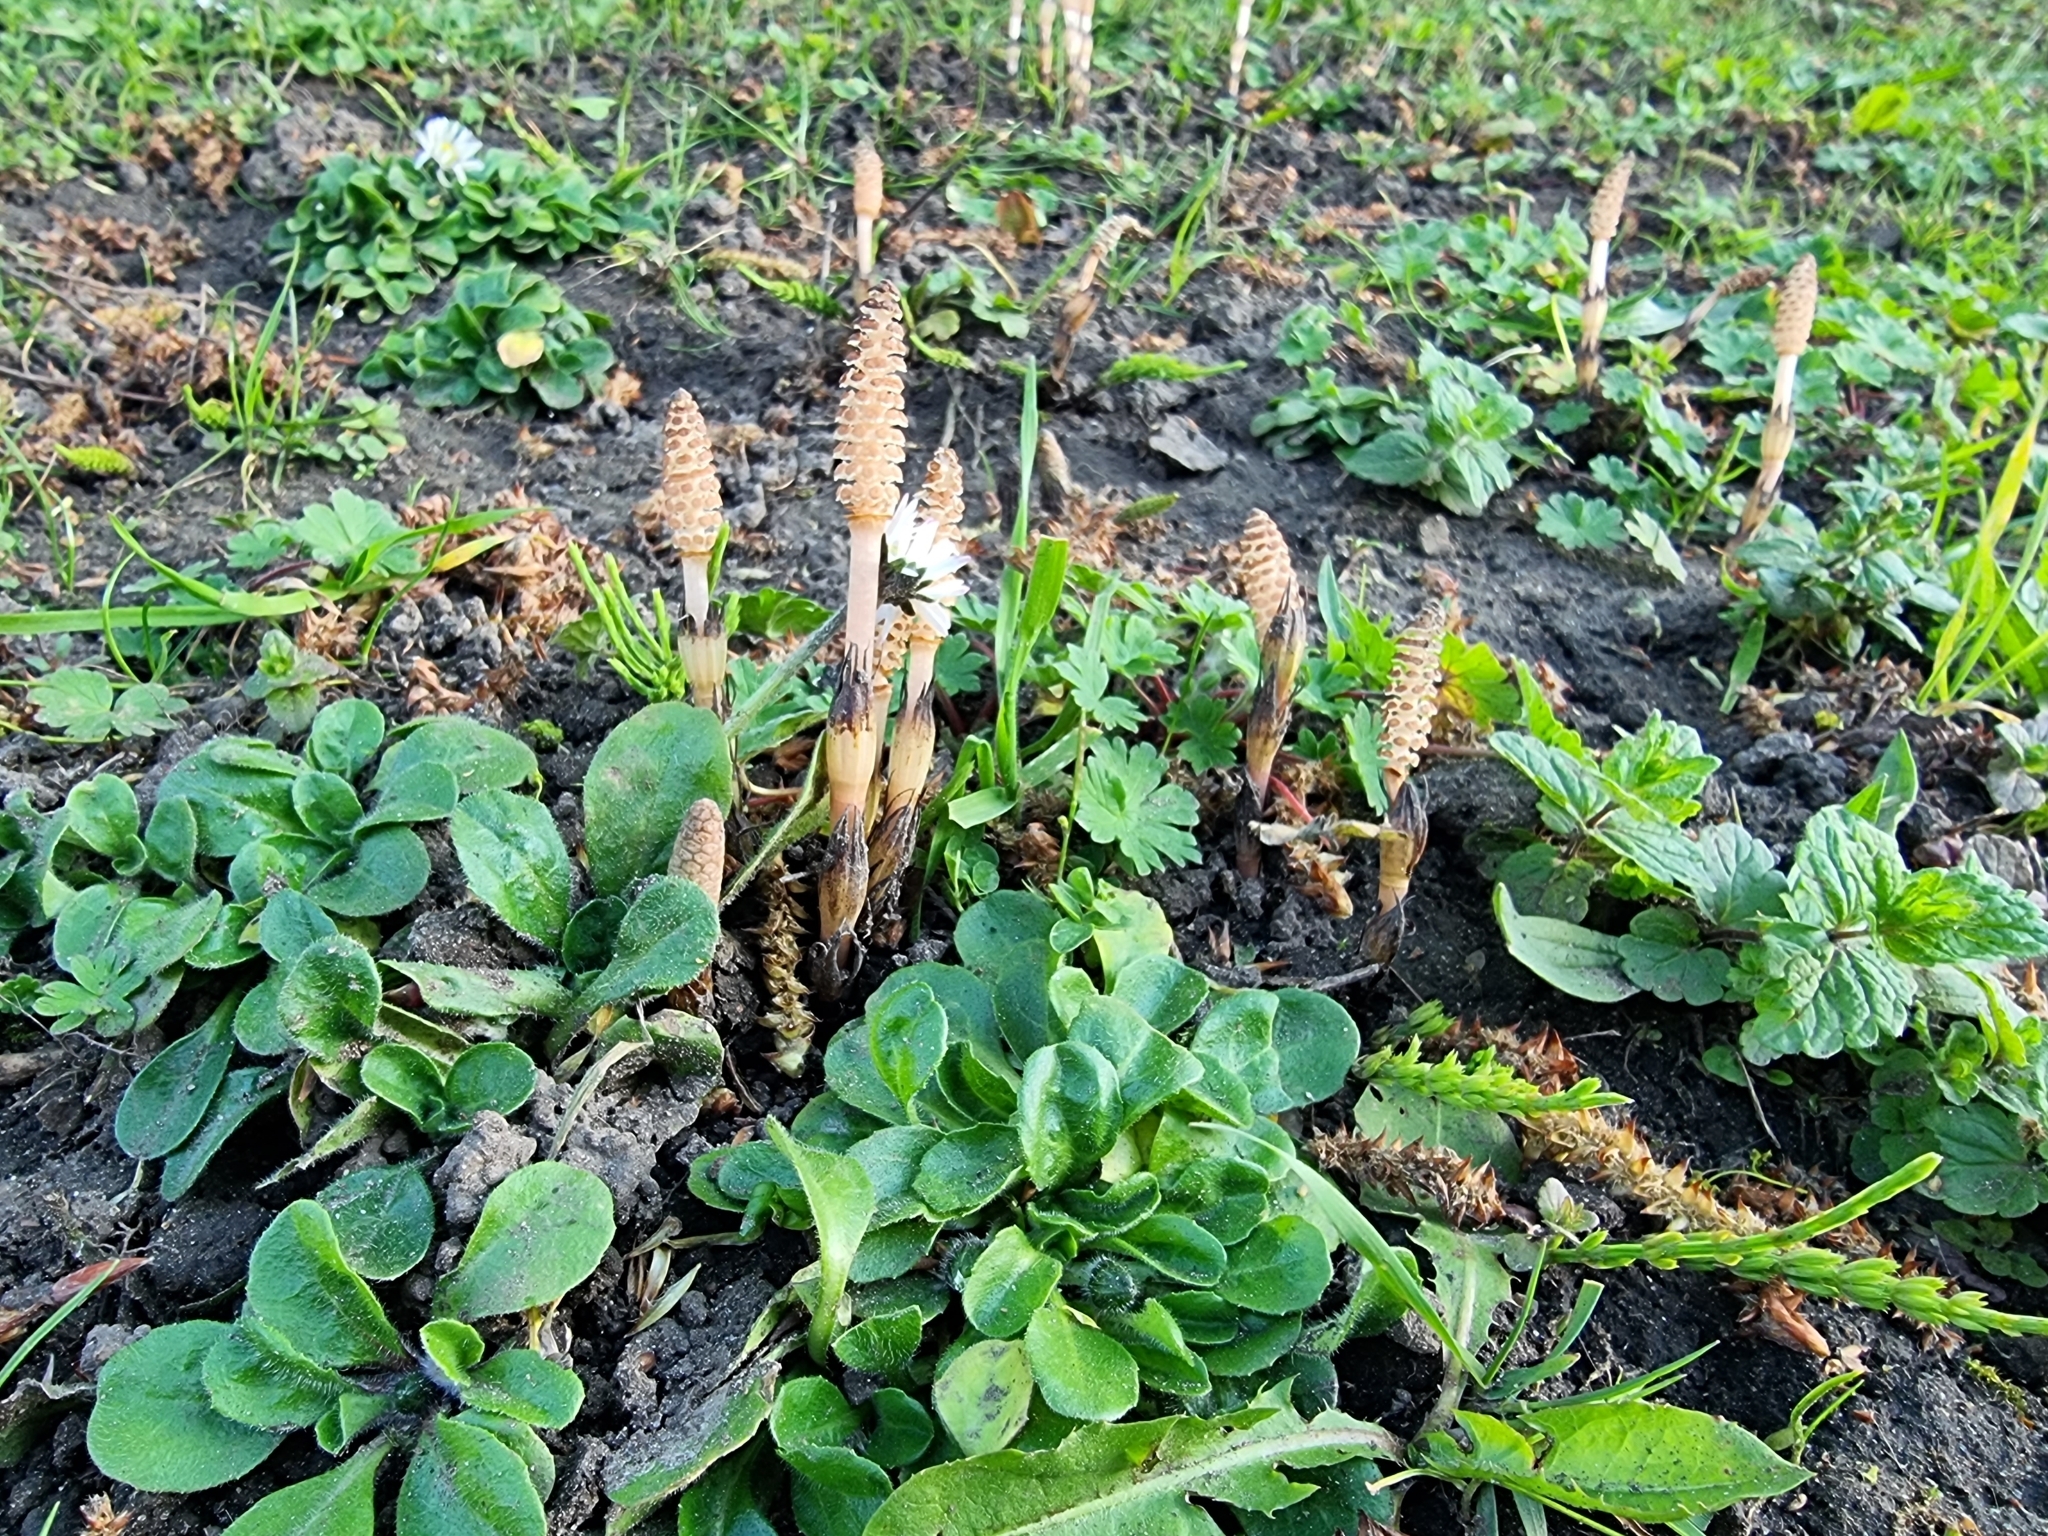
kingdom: Plantae
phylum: Tracheophyta
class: Polypodiopsida
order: Equisetales
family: Equisetaceae
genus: Equisetum
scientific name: Equisetum arvense
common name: Field horsetail
